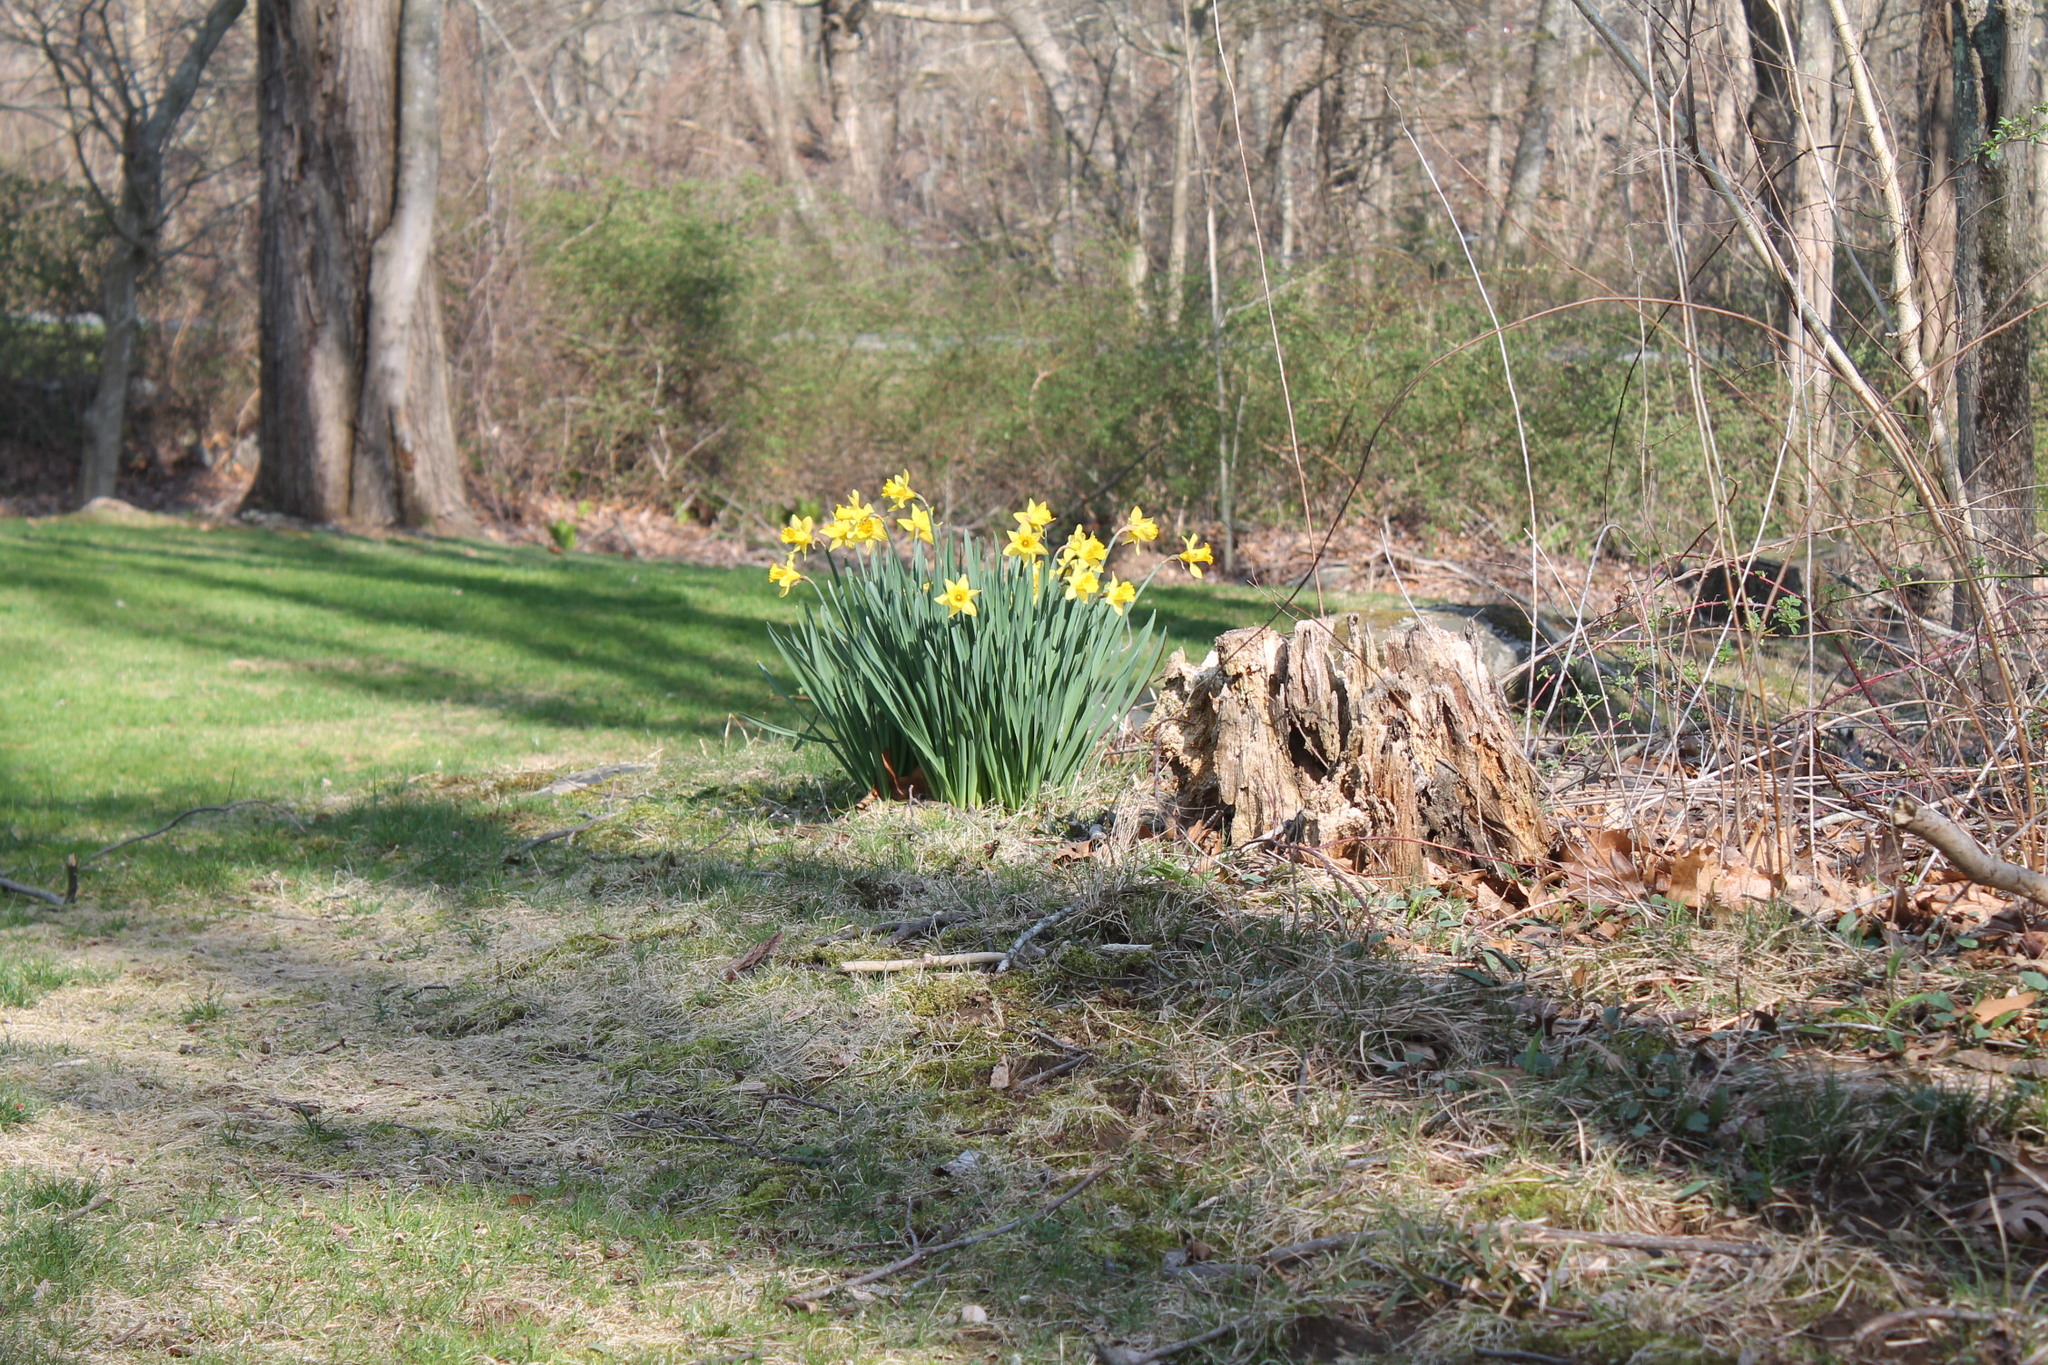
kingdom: Plantae
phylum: Tracheophyta
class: Liliopsida
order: Asparagales
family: Amaryllidaceae
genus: Narcissus
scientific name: Narcissus pseudonarcissus
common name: Daffodil
